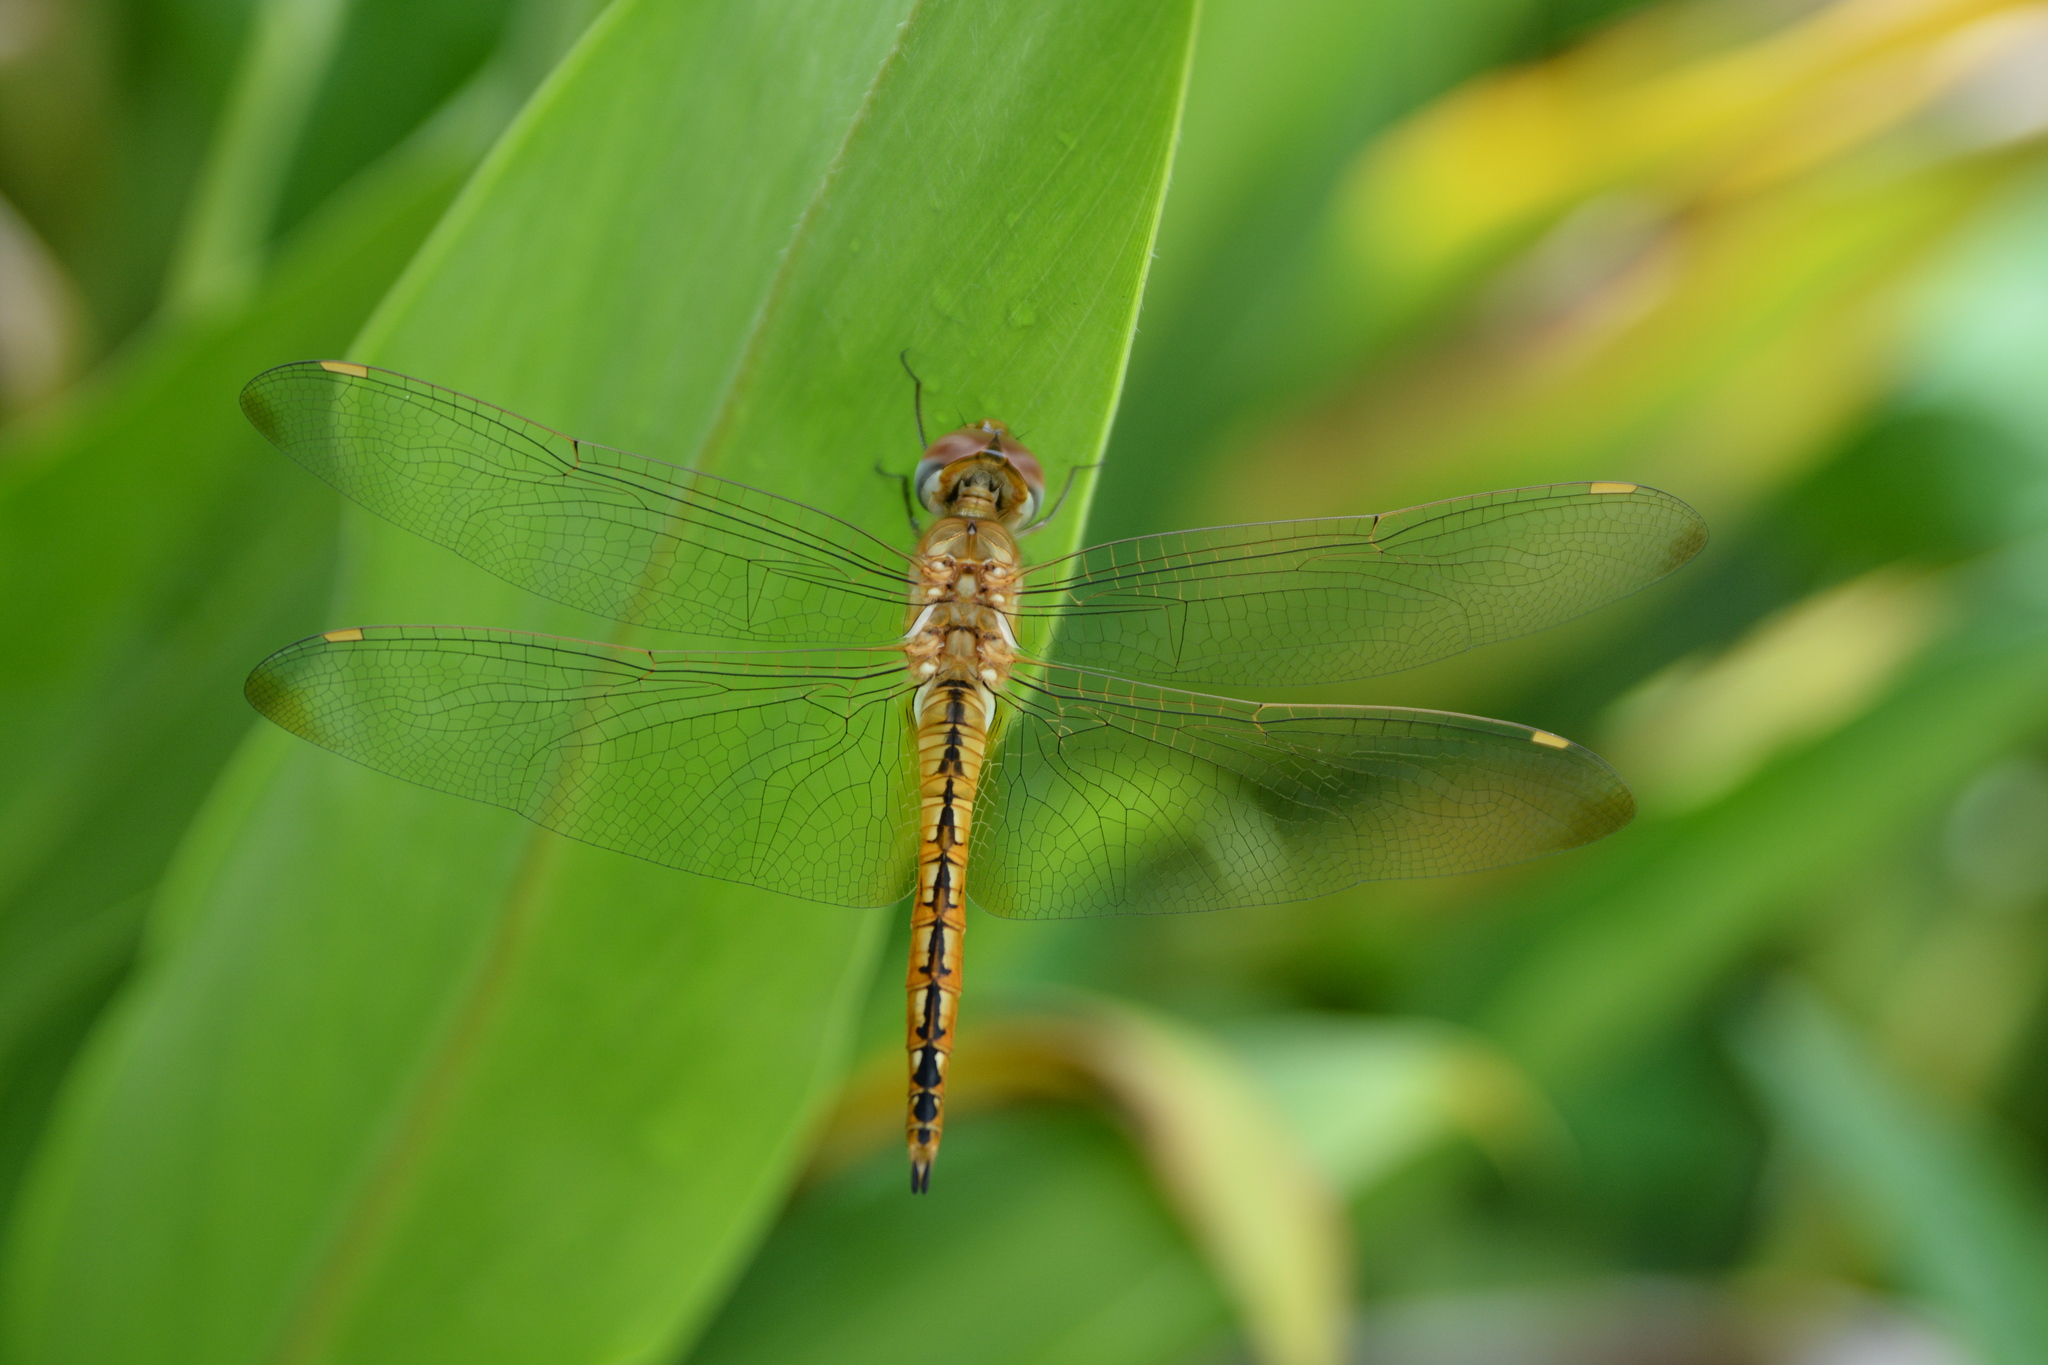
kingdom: Animalia
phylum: Arthropoda
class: Insecta
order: Odonata
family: Libellulidae
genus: Pantala
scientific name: Pantala flavescens
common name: Wandering glider
